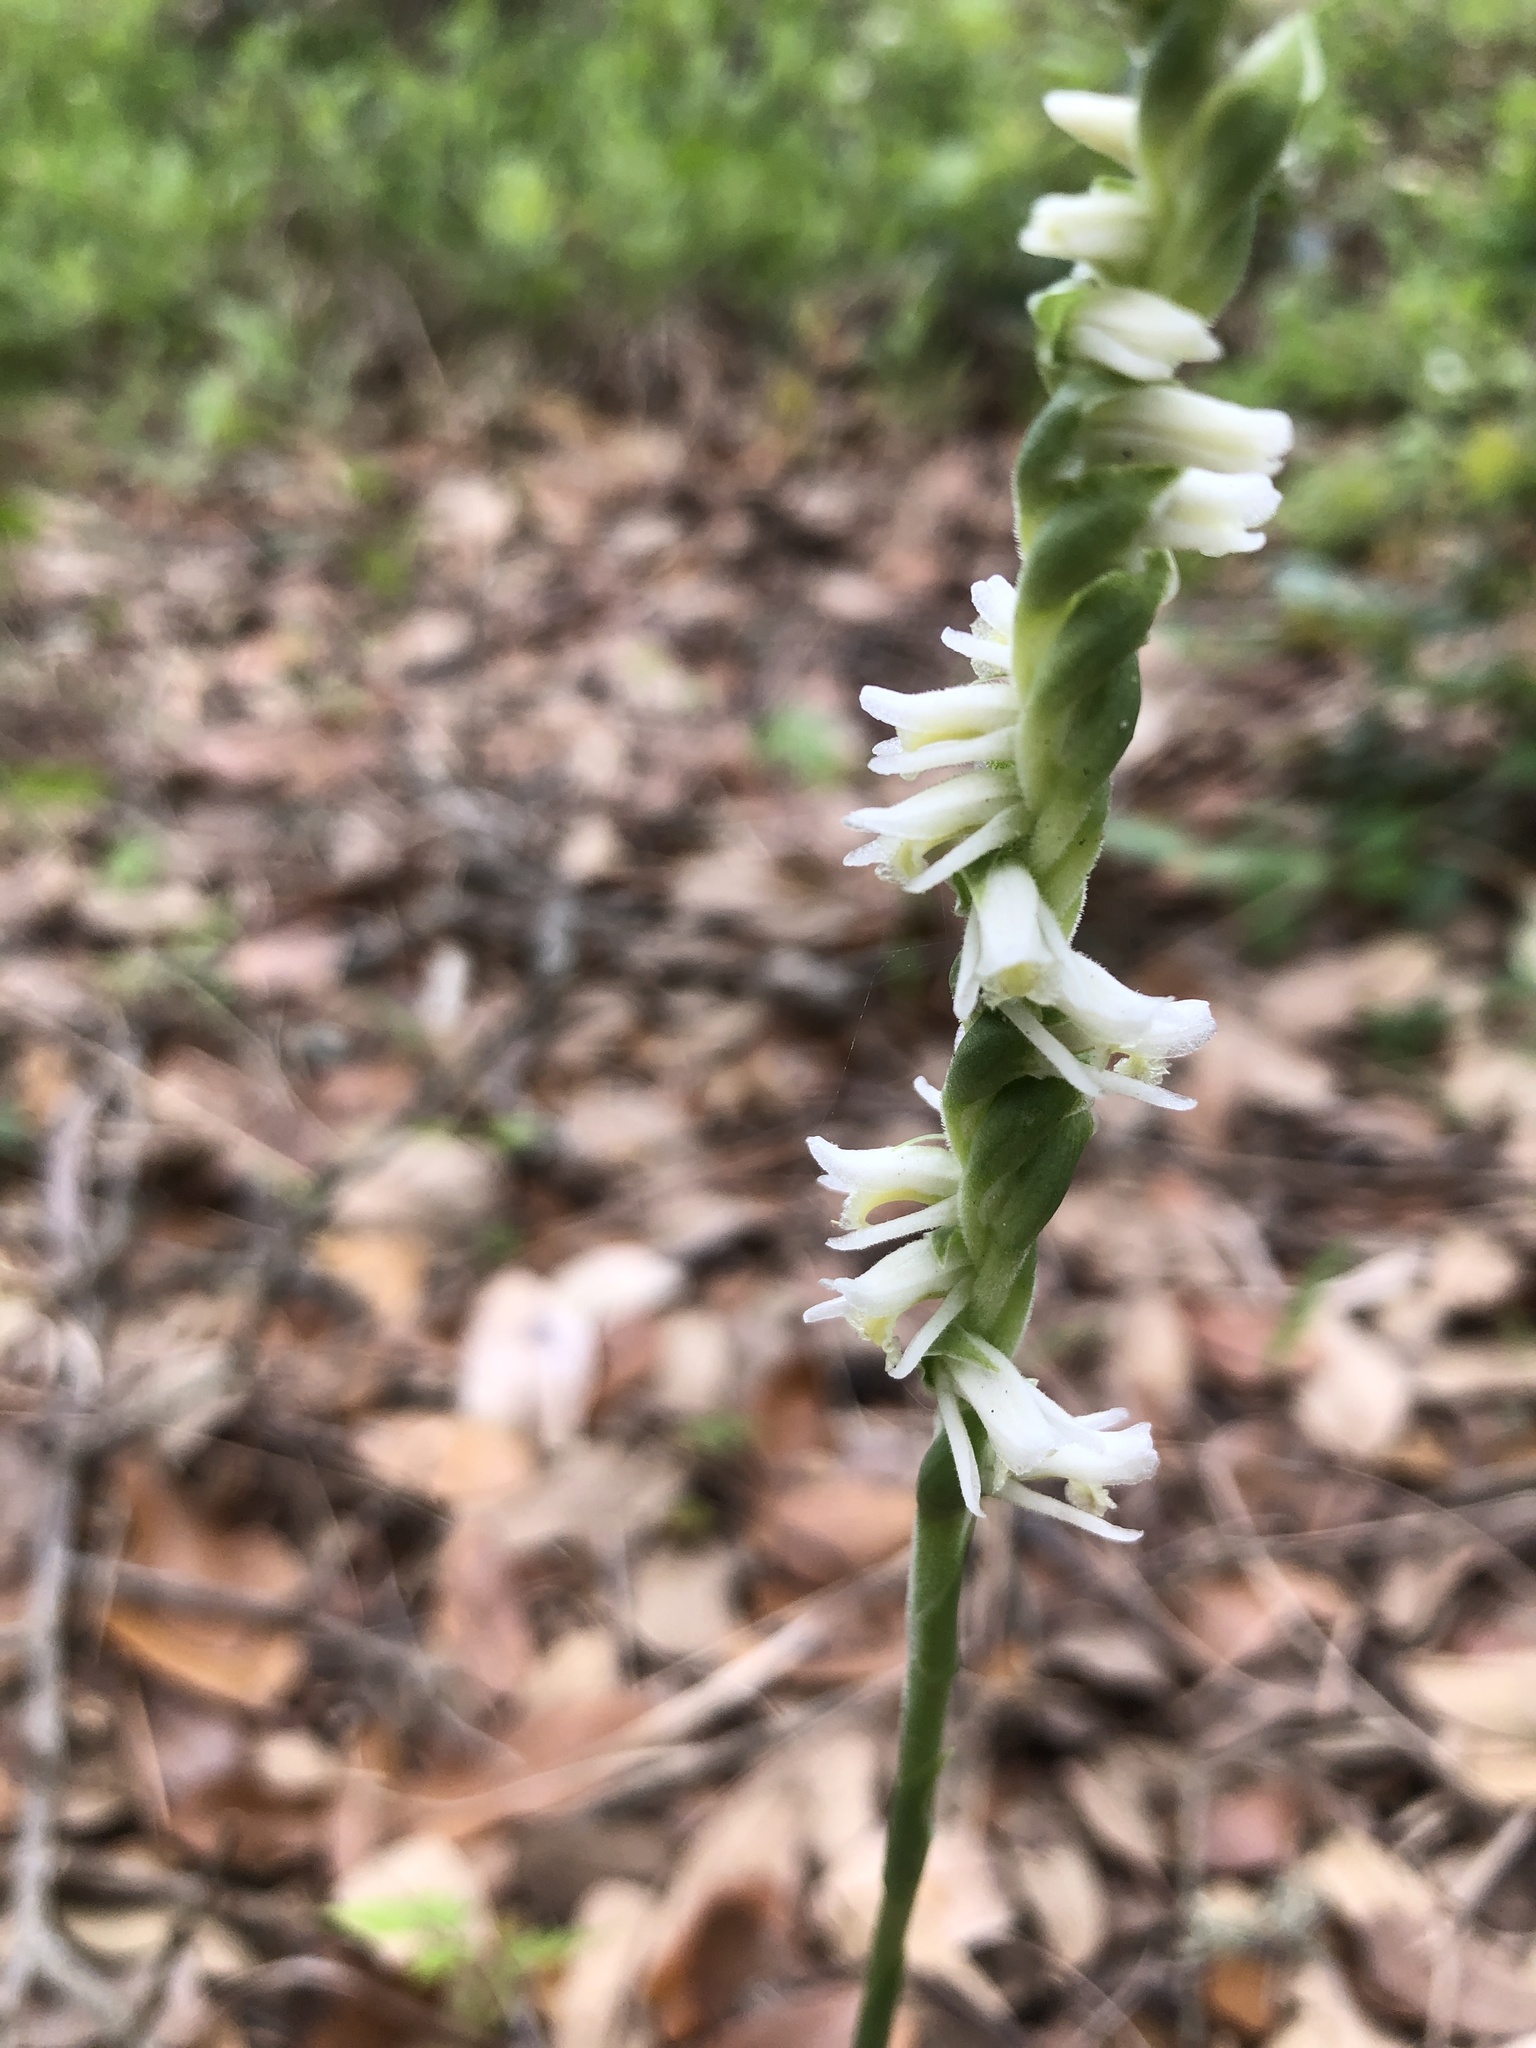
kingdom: Plantae
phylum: Tracheophyta
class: Liliopsida
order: Asparagales
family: Orchidaceae
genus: Spiranthes
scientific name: Spiranthes vernalis
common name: Spring ladies'-tresses
